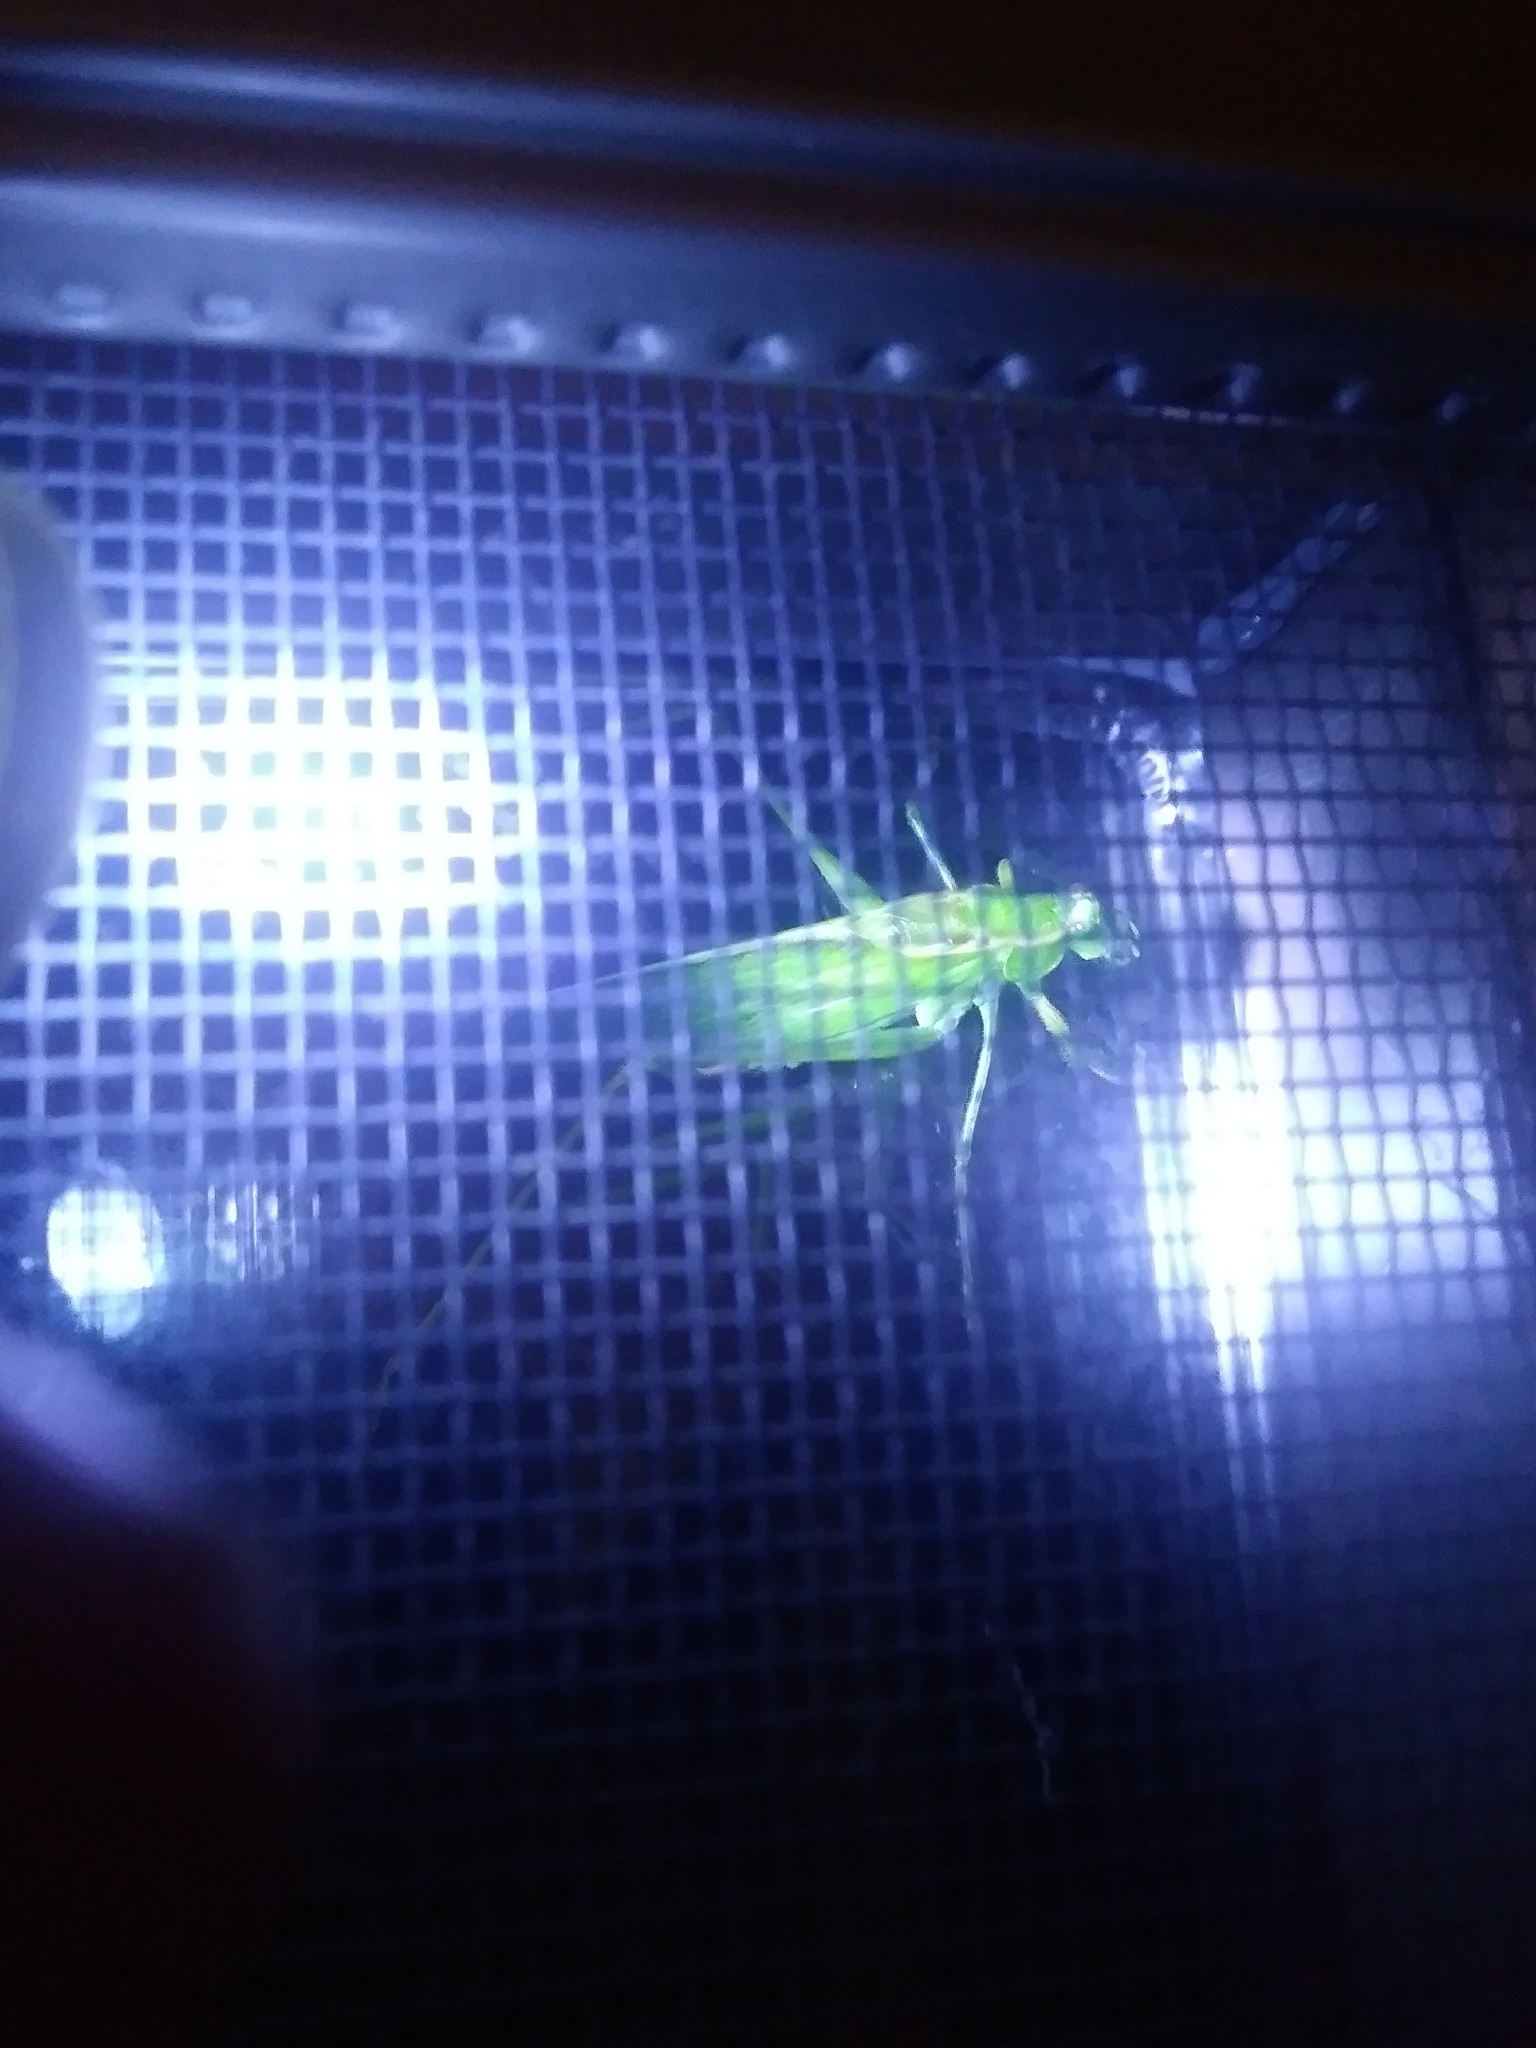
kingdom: Animalia
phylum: Arthropoda
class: Insecta
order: Orthoptera
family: Tettigoniidae
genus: Scudderia
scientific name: Scudderia septentrionalis
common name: Northern bush-katydid
